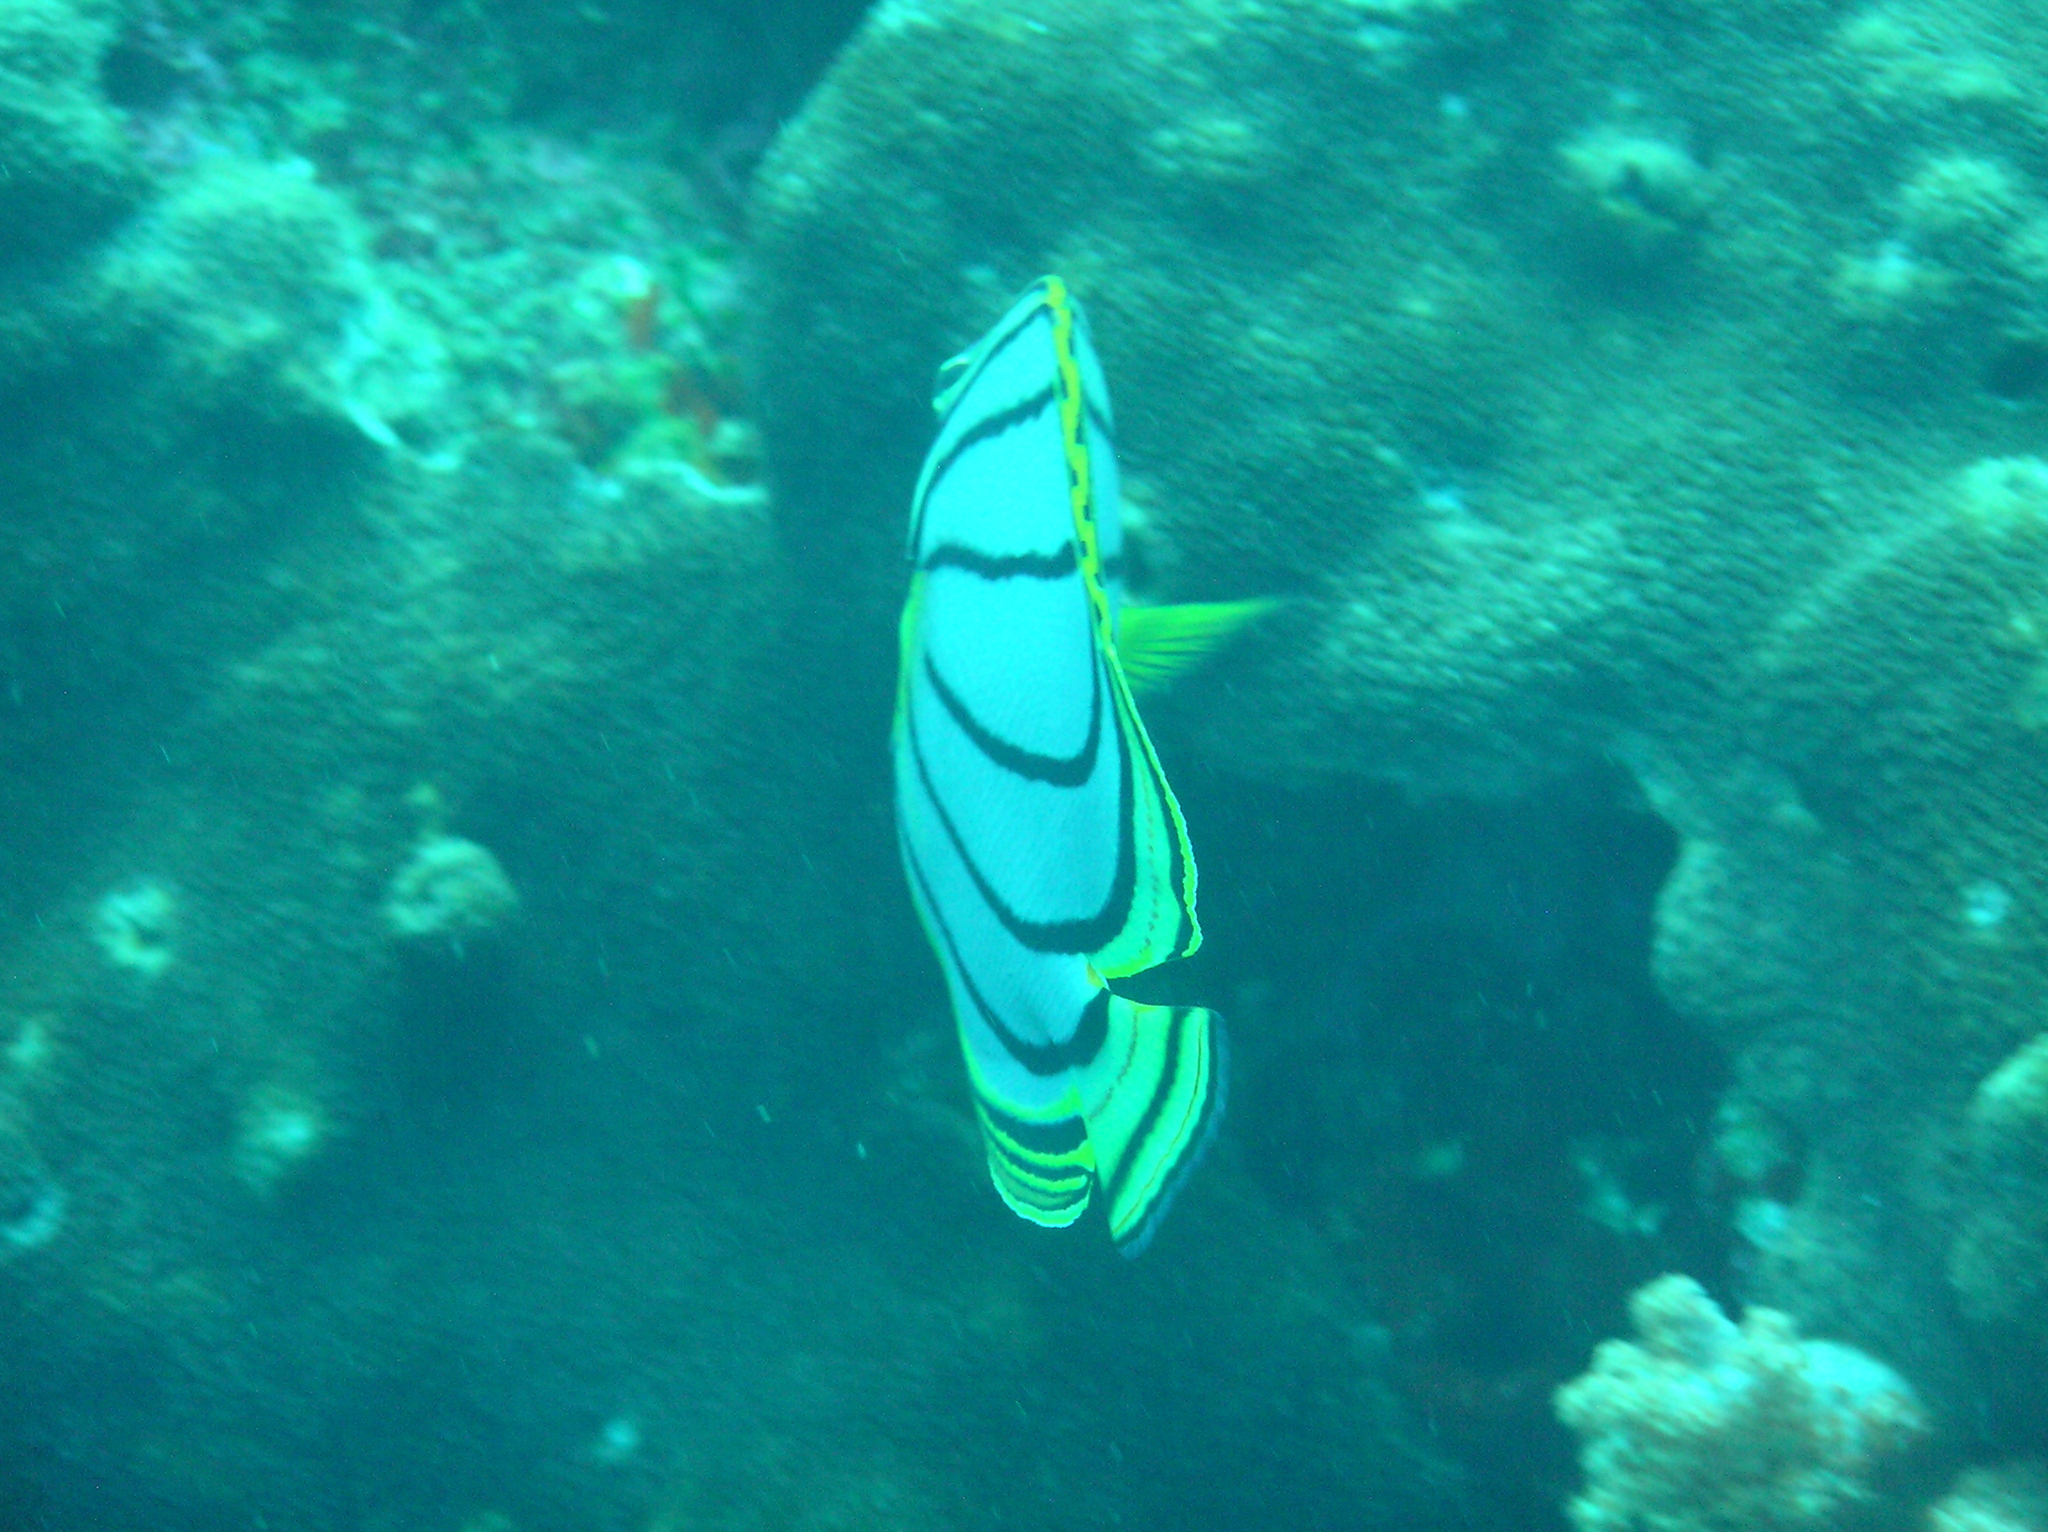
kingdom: Animalia
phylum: Chordata
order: Perciformes
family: Chaetodontidae
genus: Chaetodon
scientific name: Chaetodon meyeri
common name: Meyer's butterflyfish
